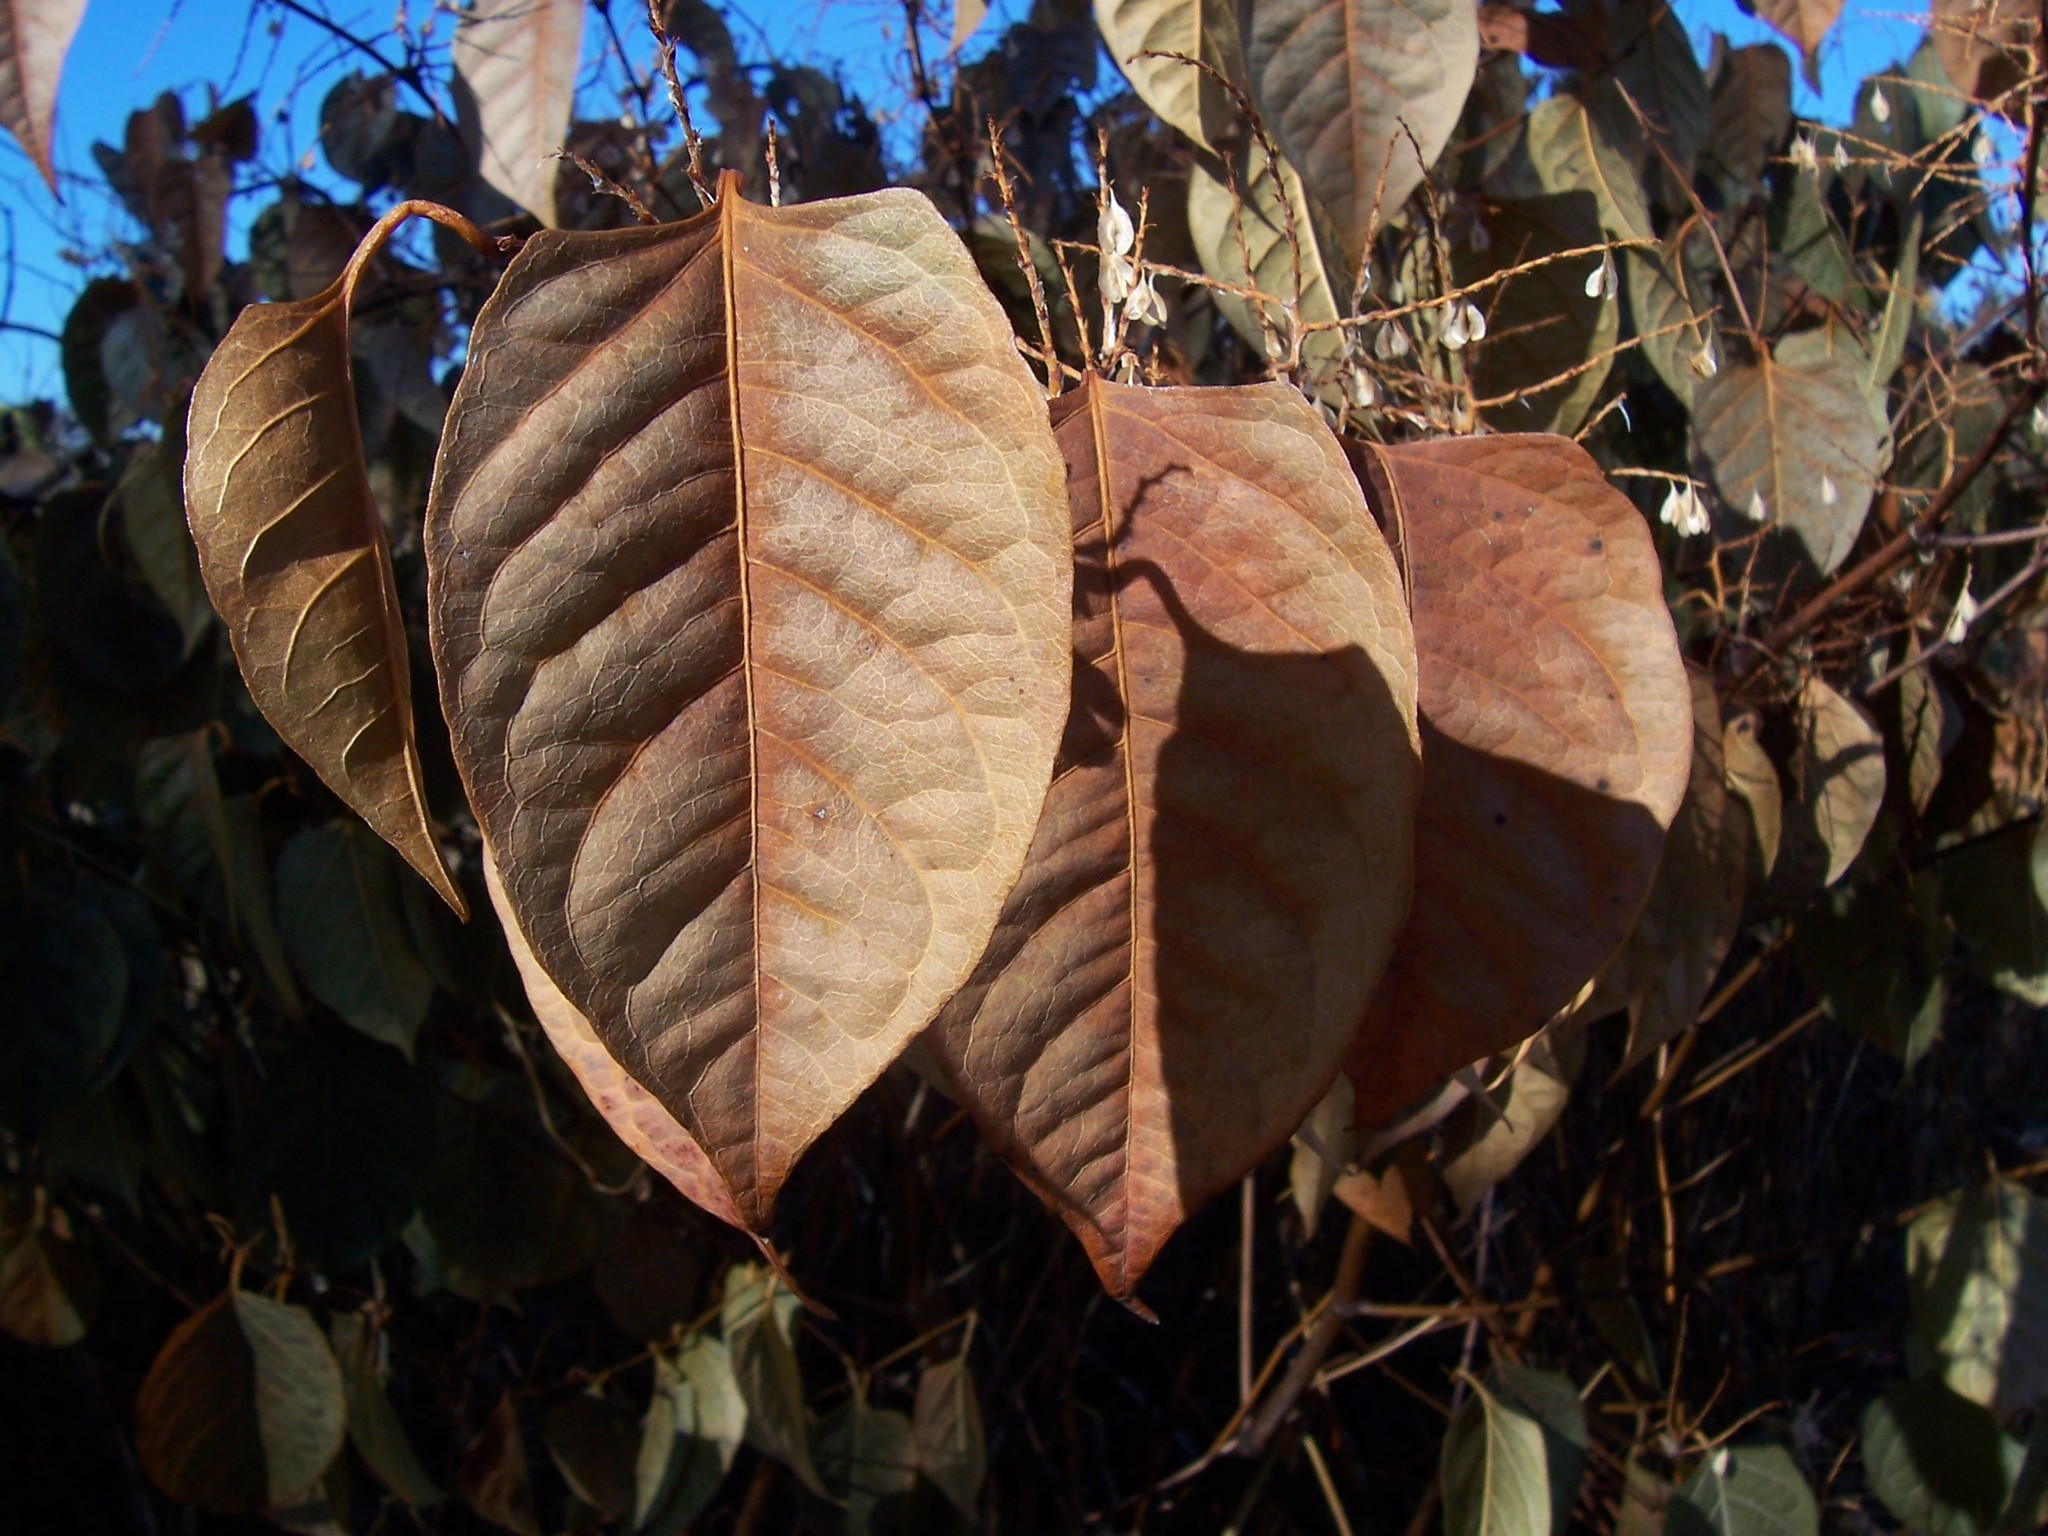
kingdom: Plantae
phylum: Tracheophyta
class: Magnoliopsida
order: Caryophyllales
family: Polygonaceae
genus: Reynoutria
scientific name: Reynoutria japonica
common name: Japanese knotweed
